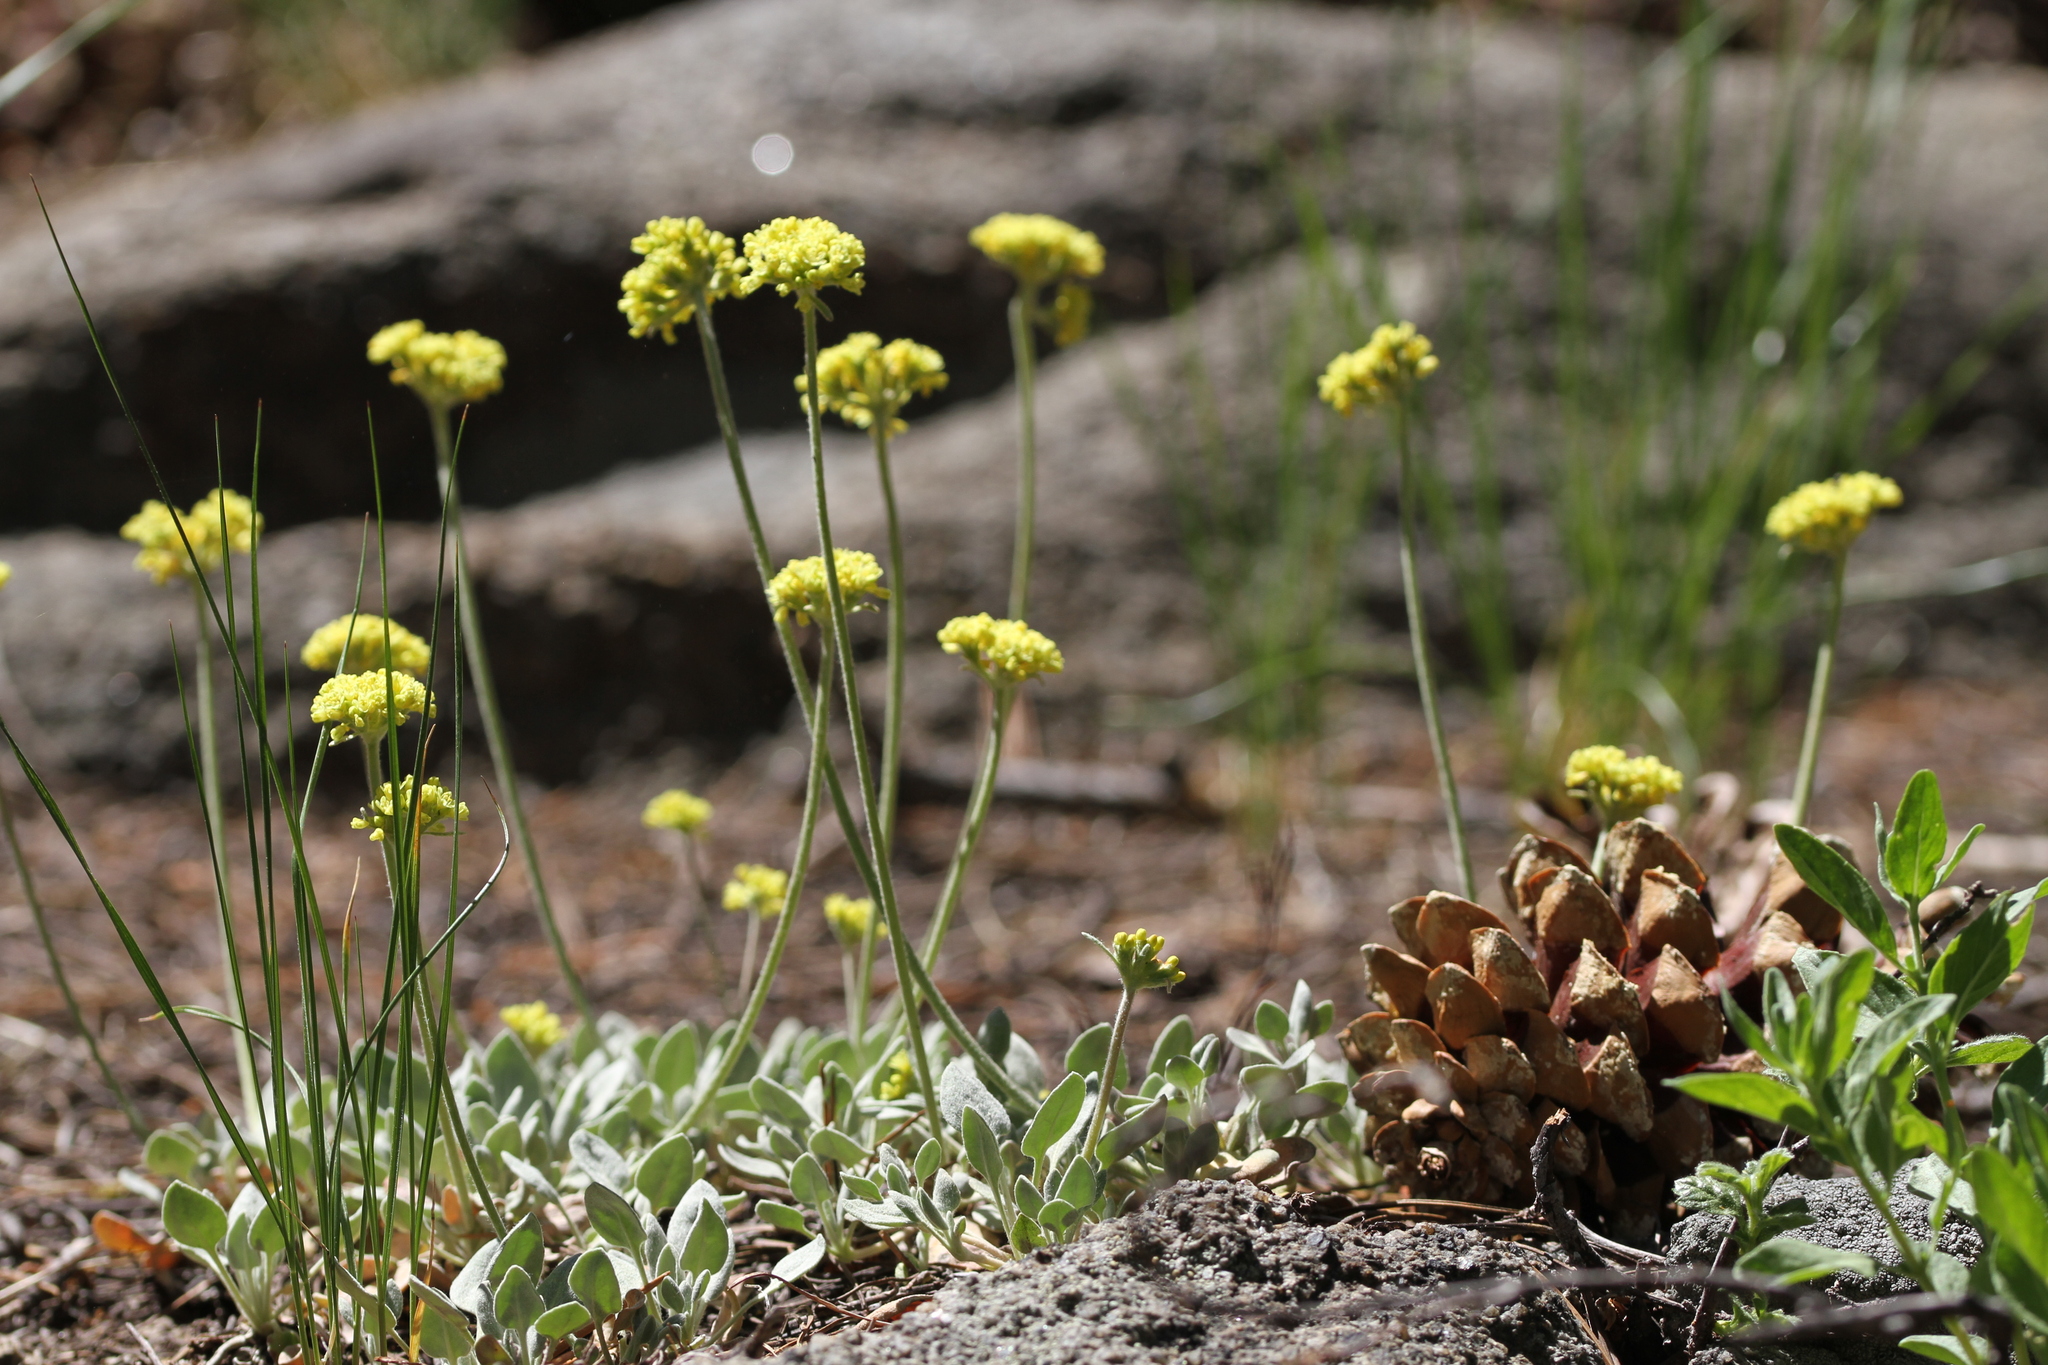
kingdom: Plantae
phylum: Tracheophyta
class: Magnoliopsida
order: Caryophyllales
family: Polygonaceae
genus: Eriogonum
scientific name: Eriogonum incanum
